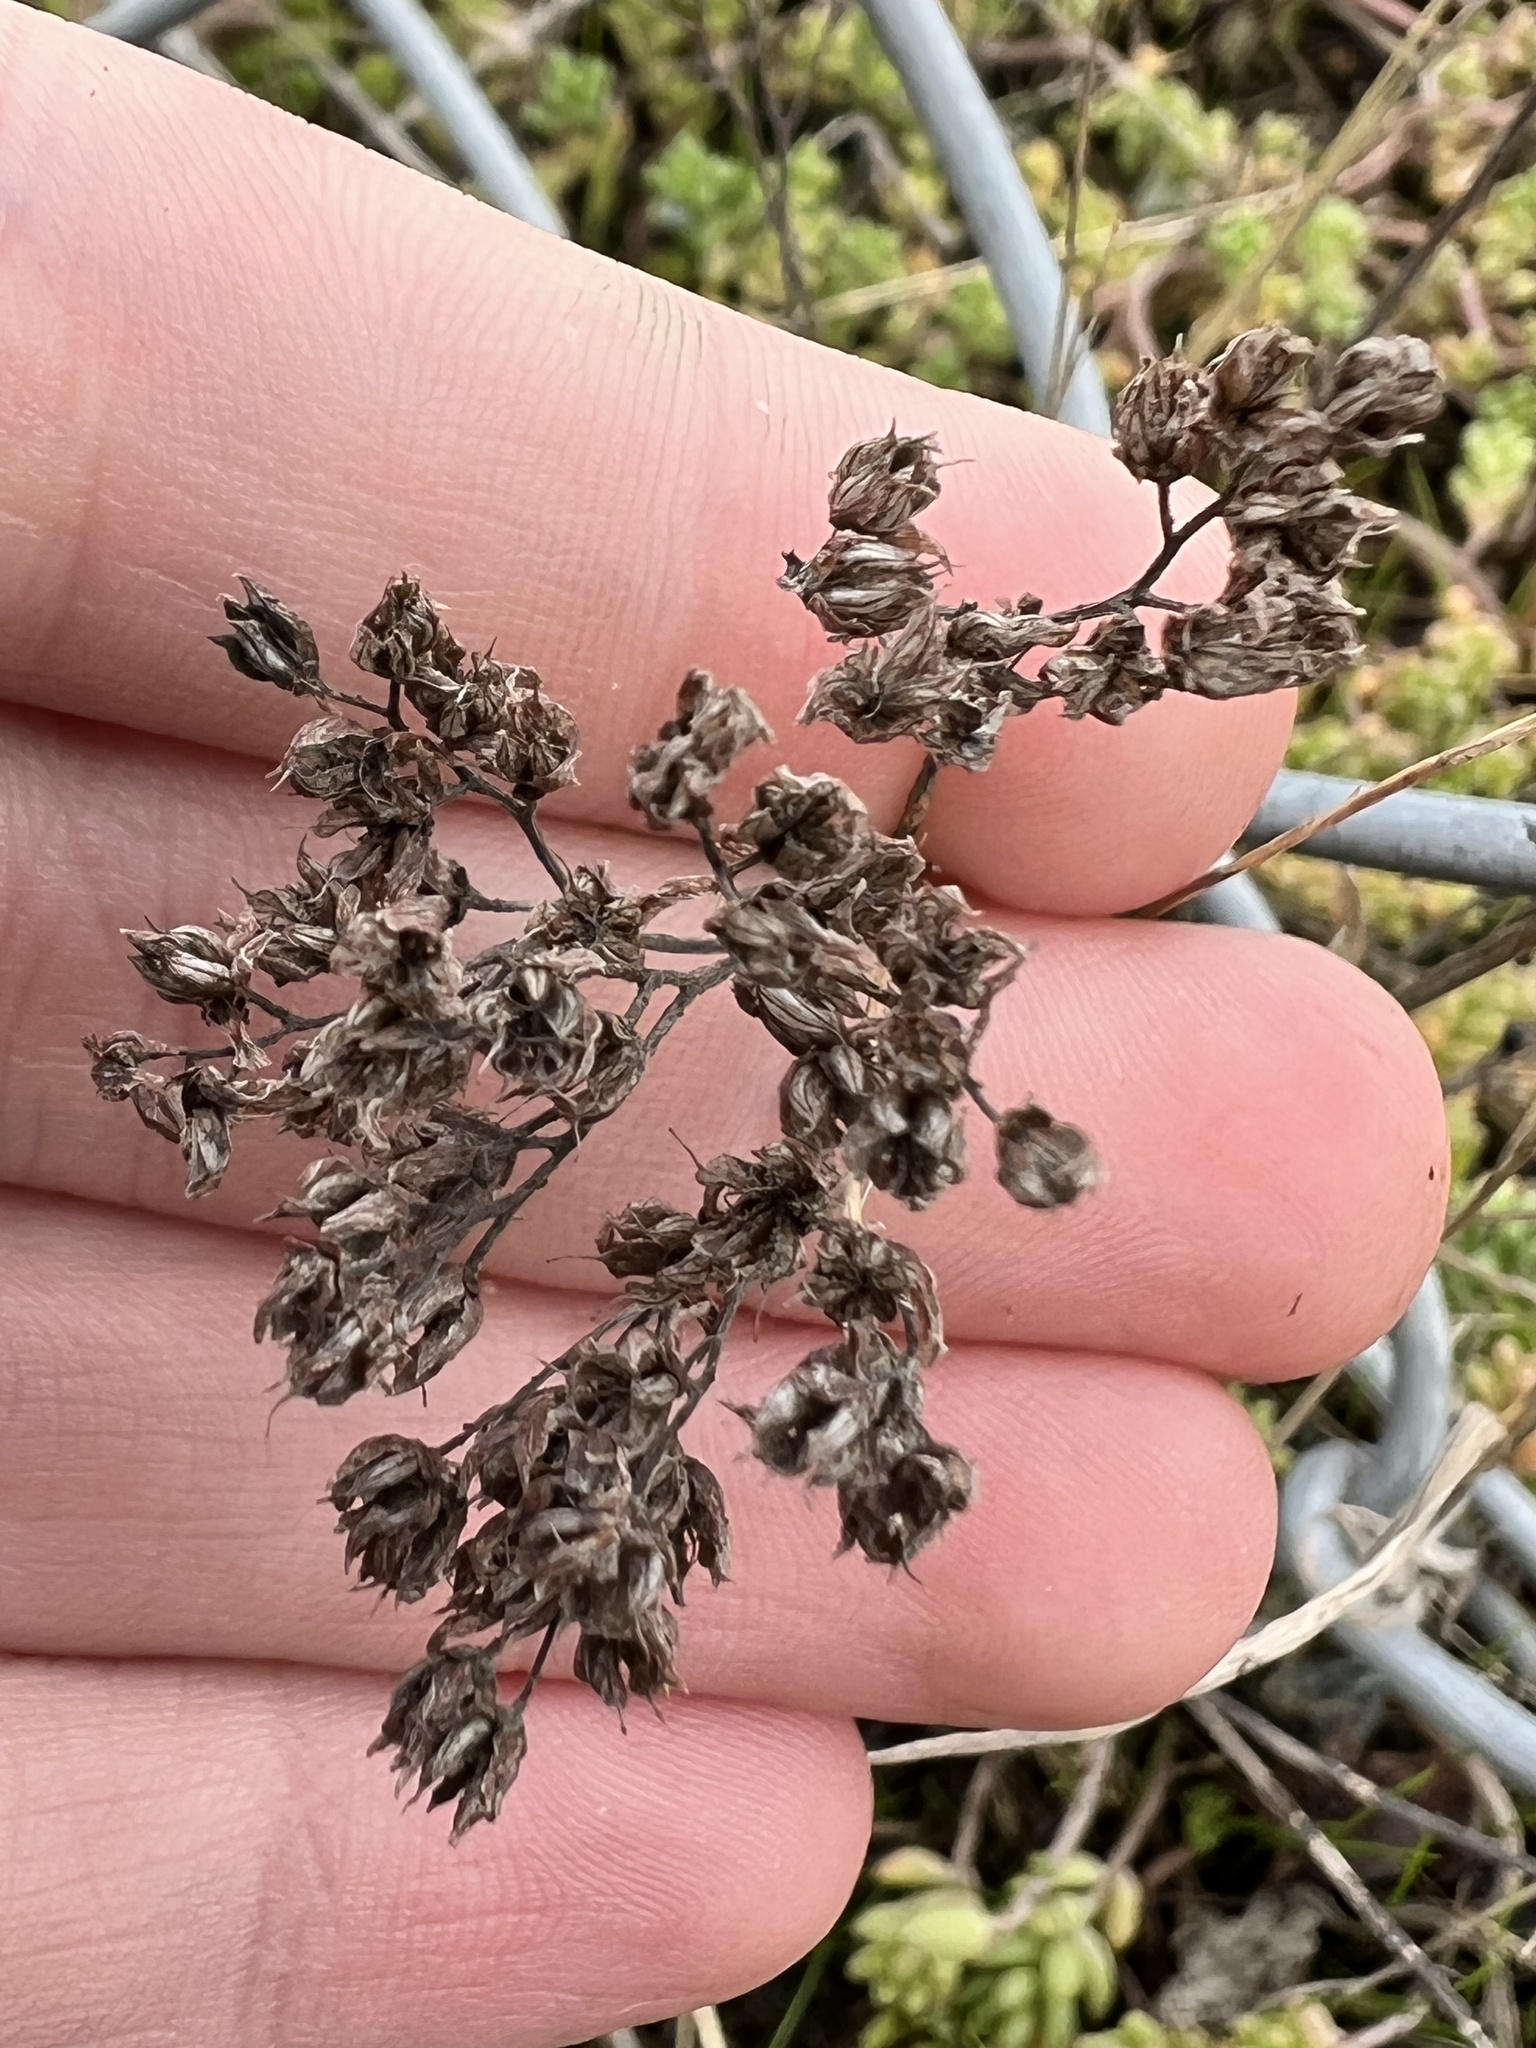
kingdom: Plantae
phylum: Tracheophyta
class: Magnoliopsida
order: Saxifragales
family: Crassulaceae
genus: Sedum
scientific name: Sedum album
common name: White stonecrop
